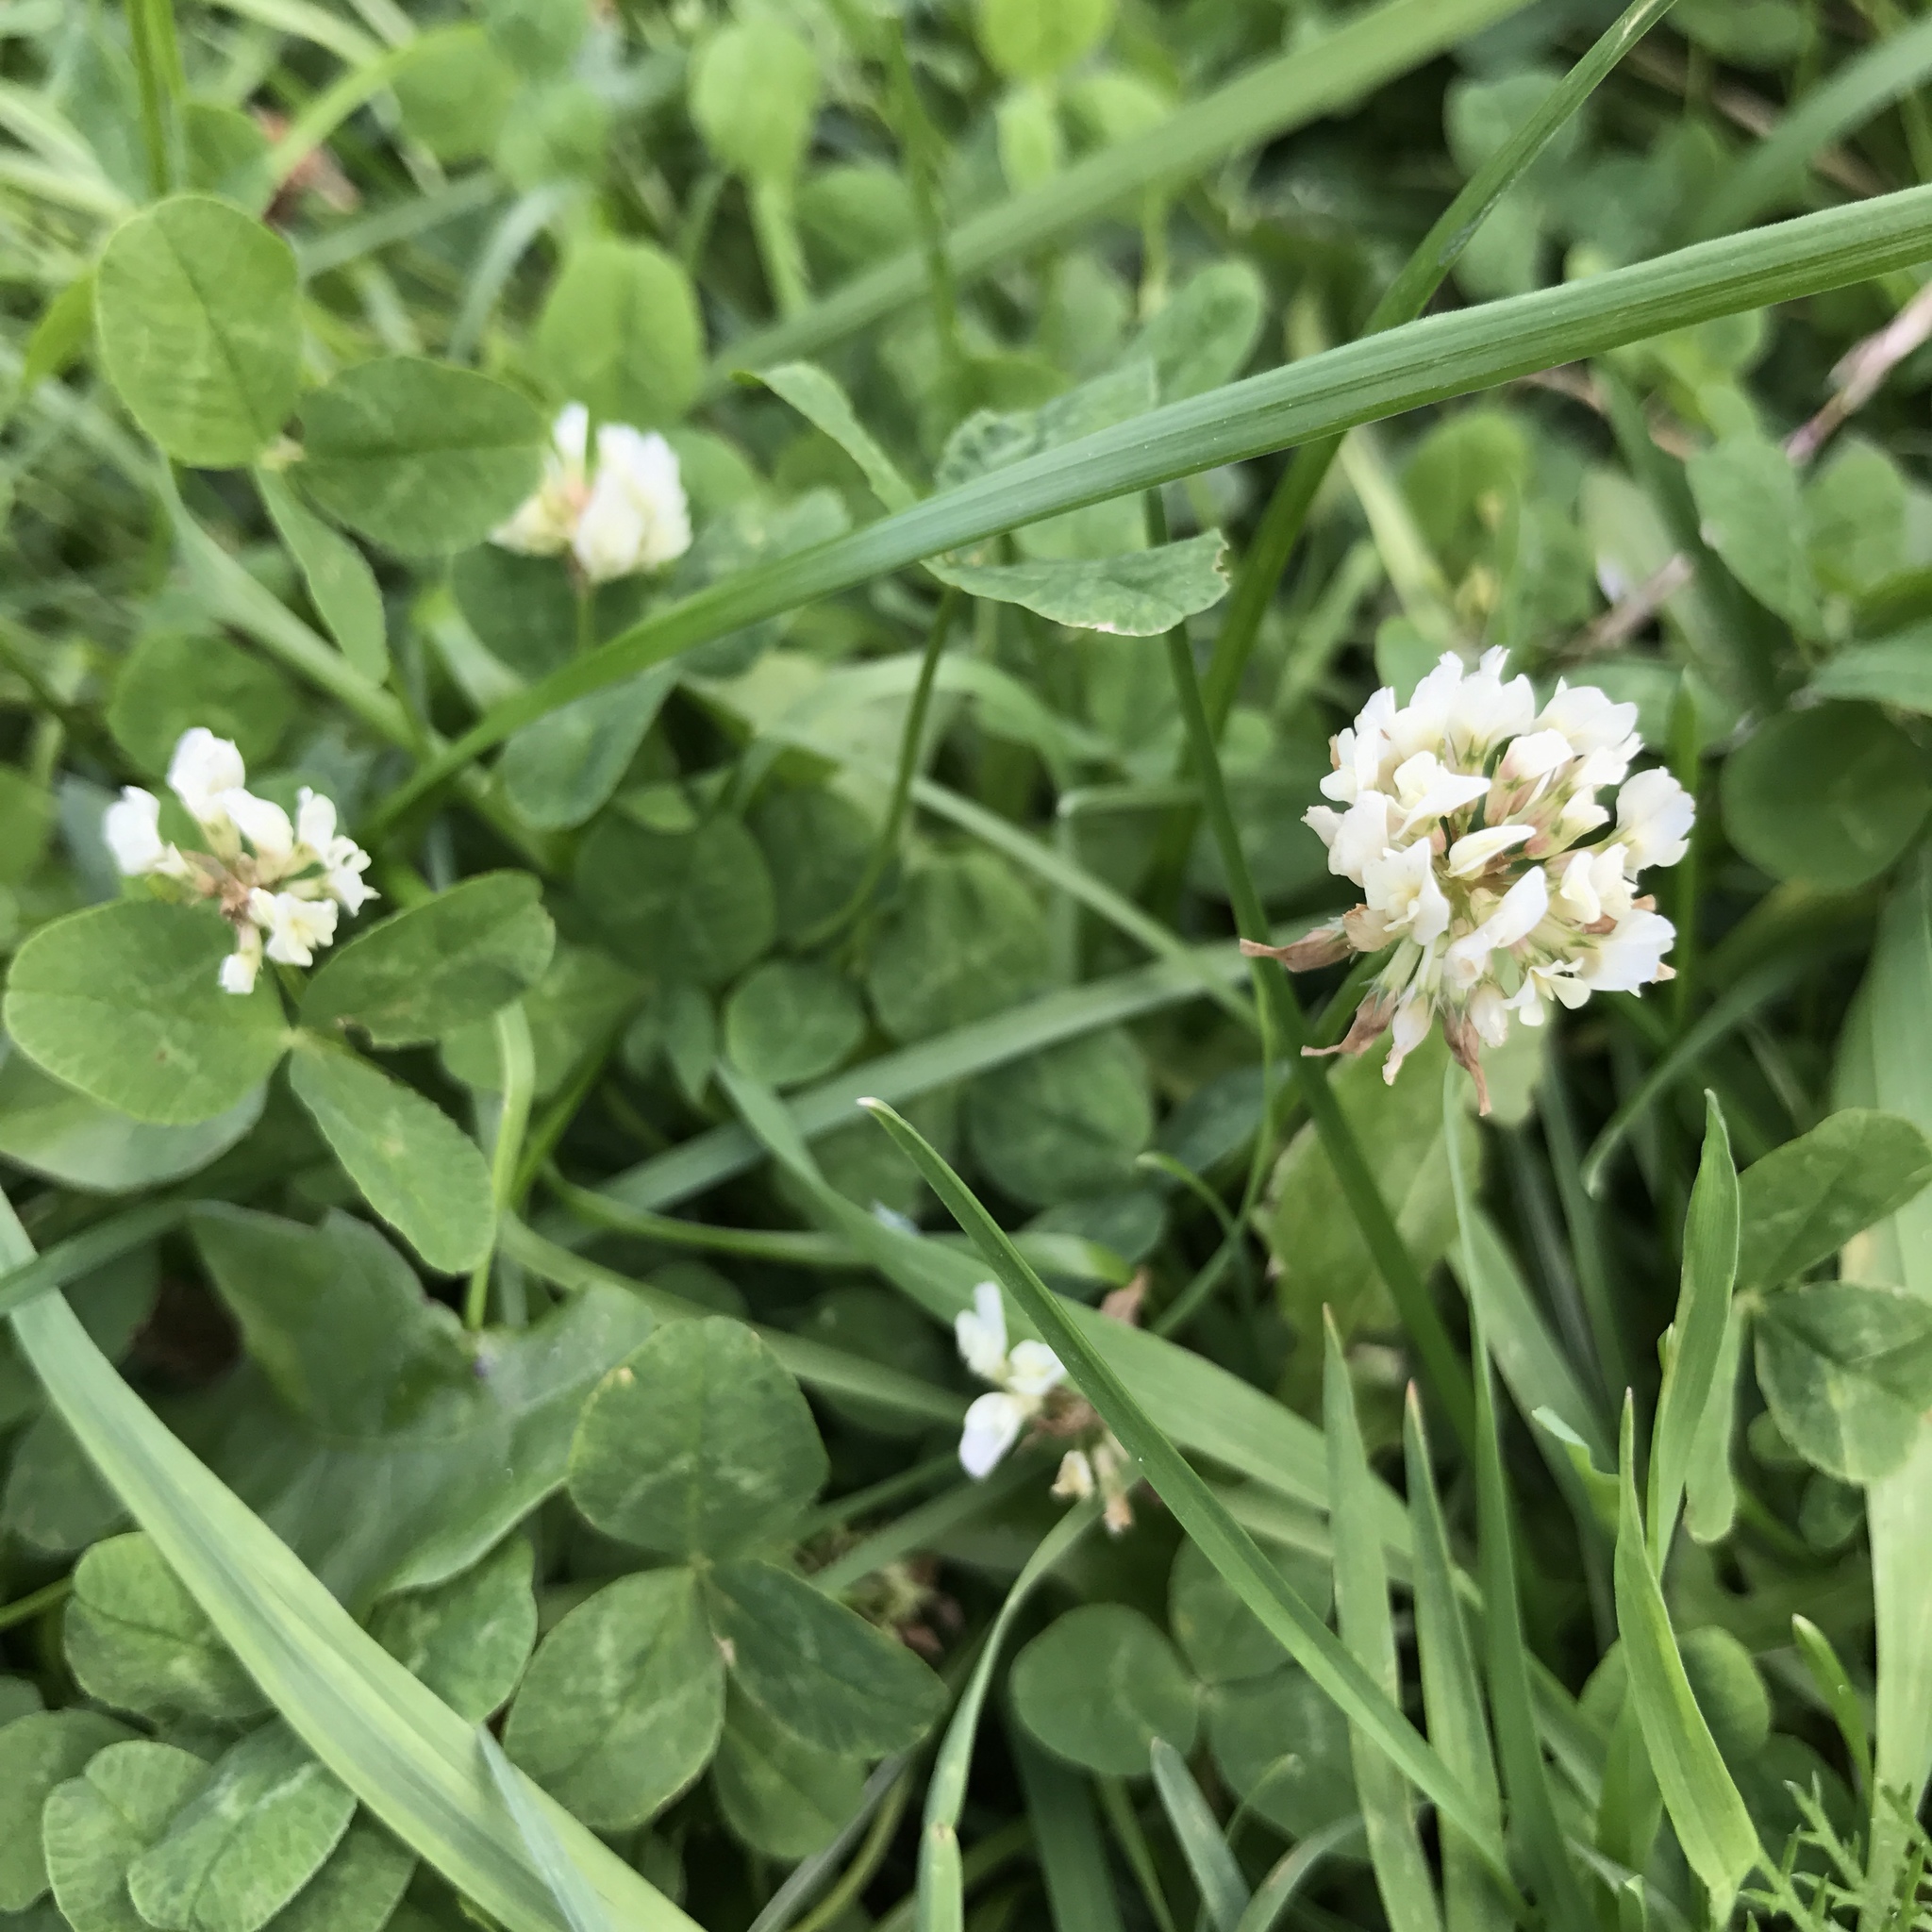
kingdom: Plantae
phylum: Tracheophyta
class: Magnoliopsida
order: Fabales
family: Fabaceae
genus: Trifolium
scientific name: Trifolium repens
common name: White clover
